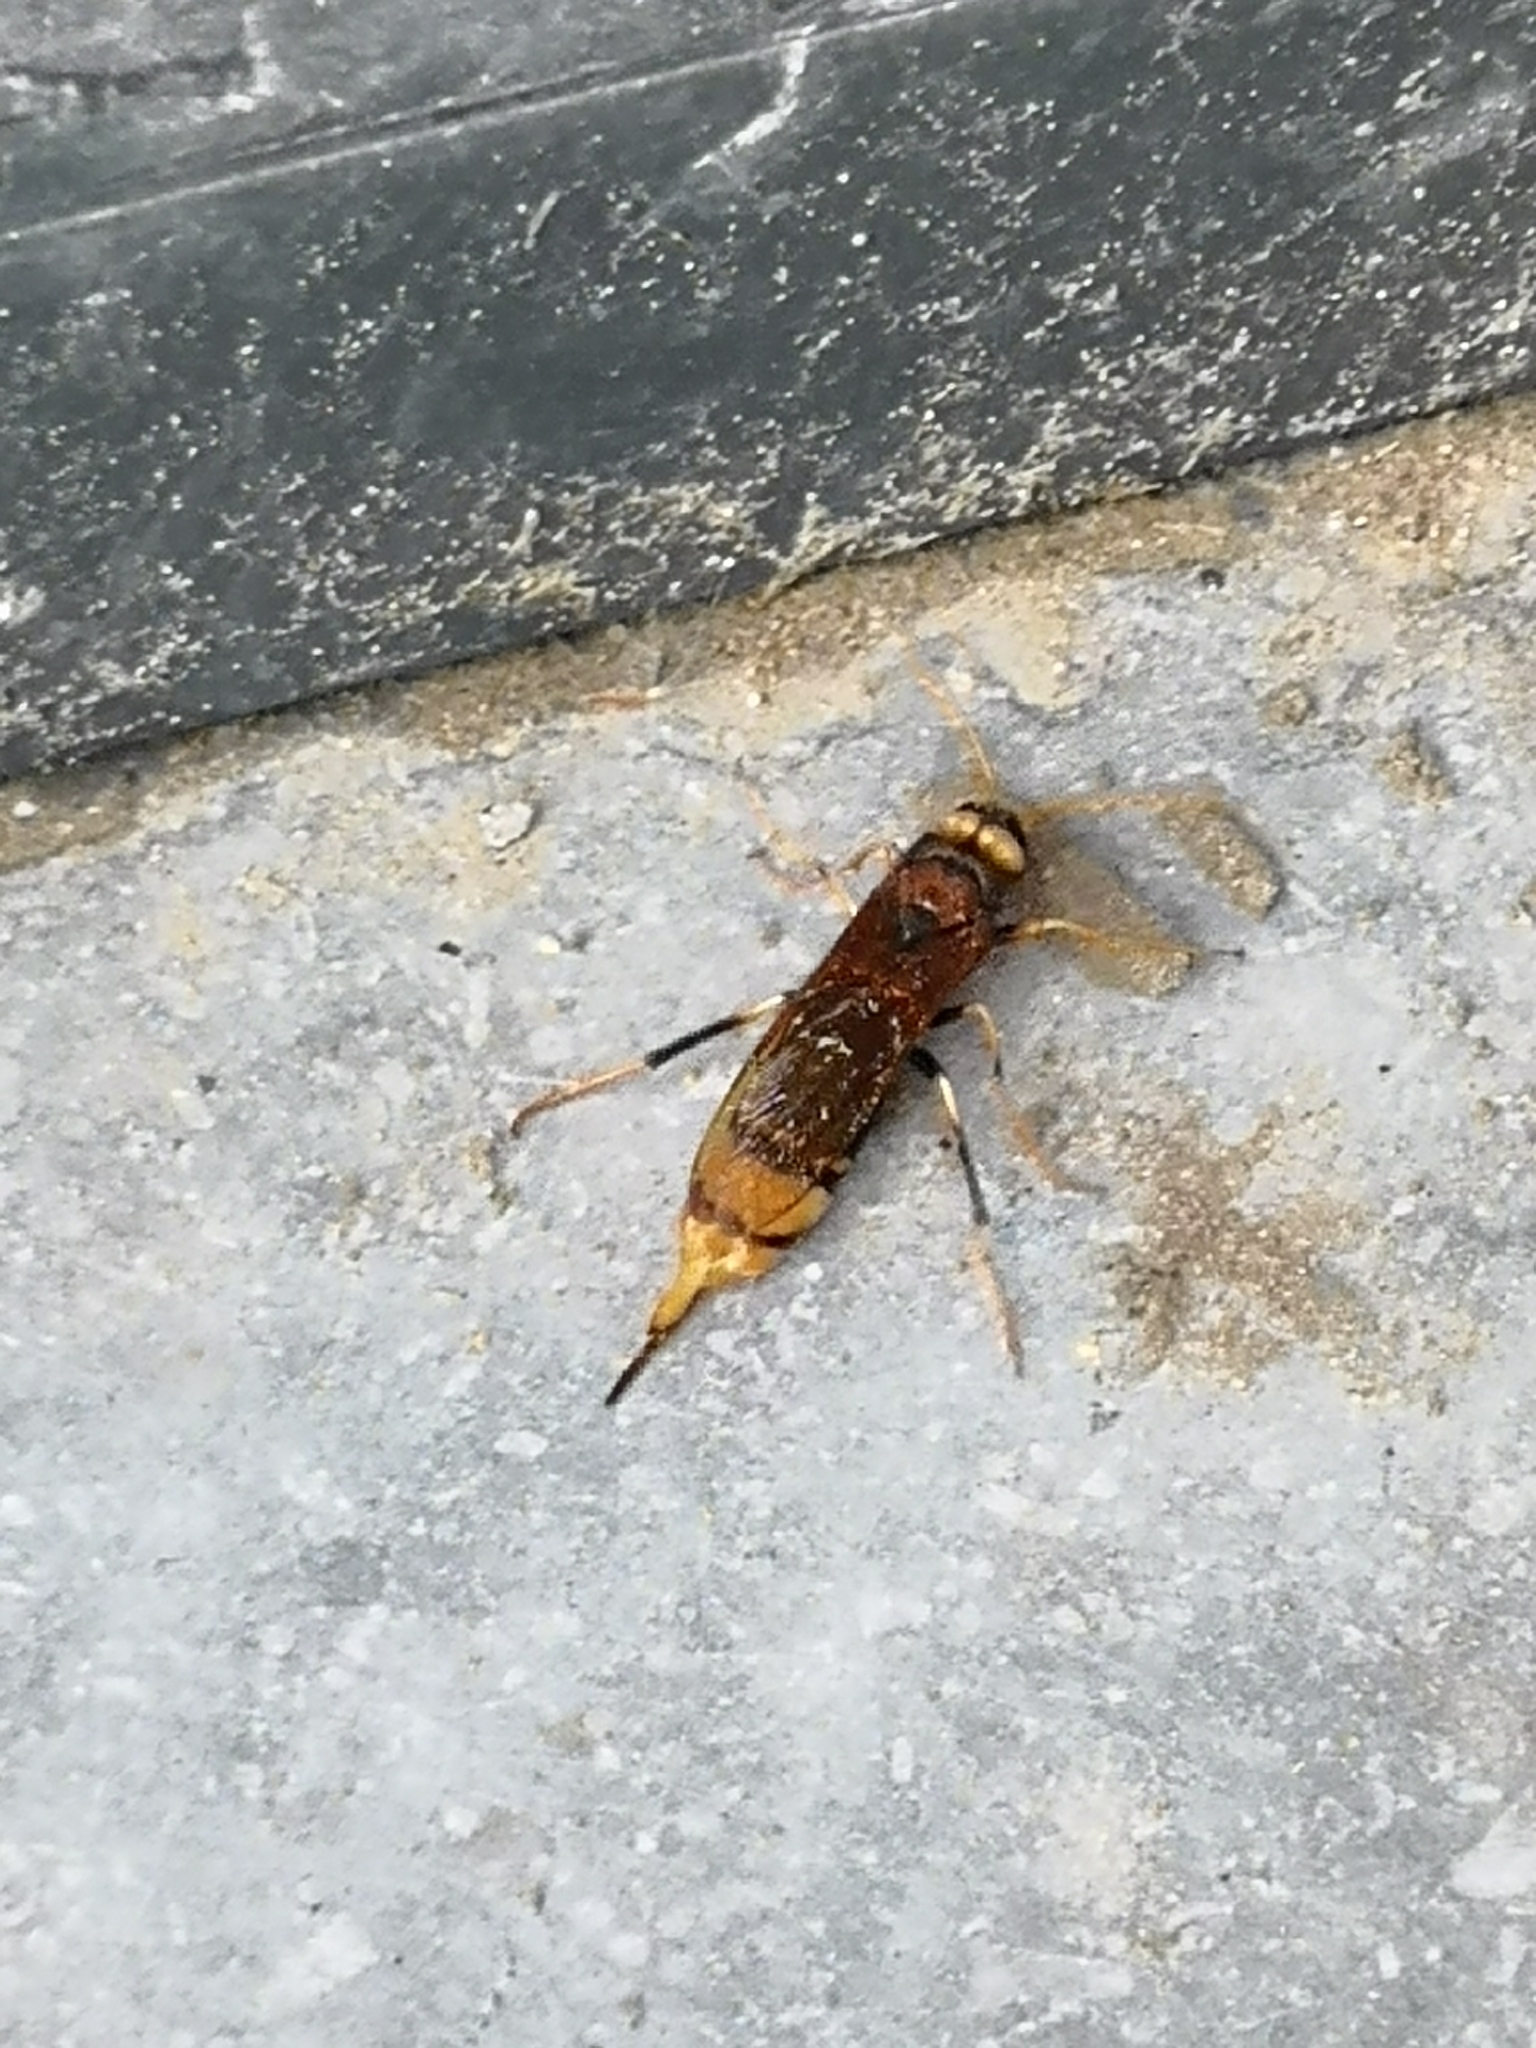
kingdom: Animalia
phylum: Arthropoda
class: Insecta
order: Hymenoptera
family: Siricidae
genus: Urocerus
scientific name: Urocerus augur
